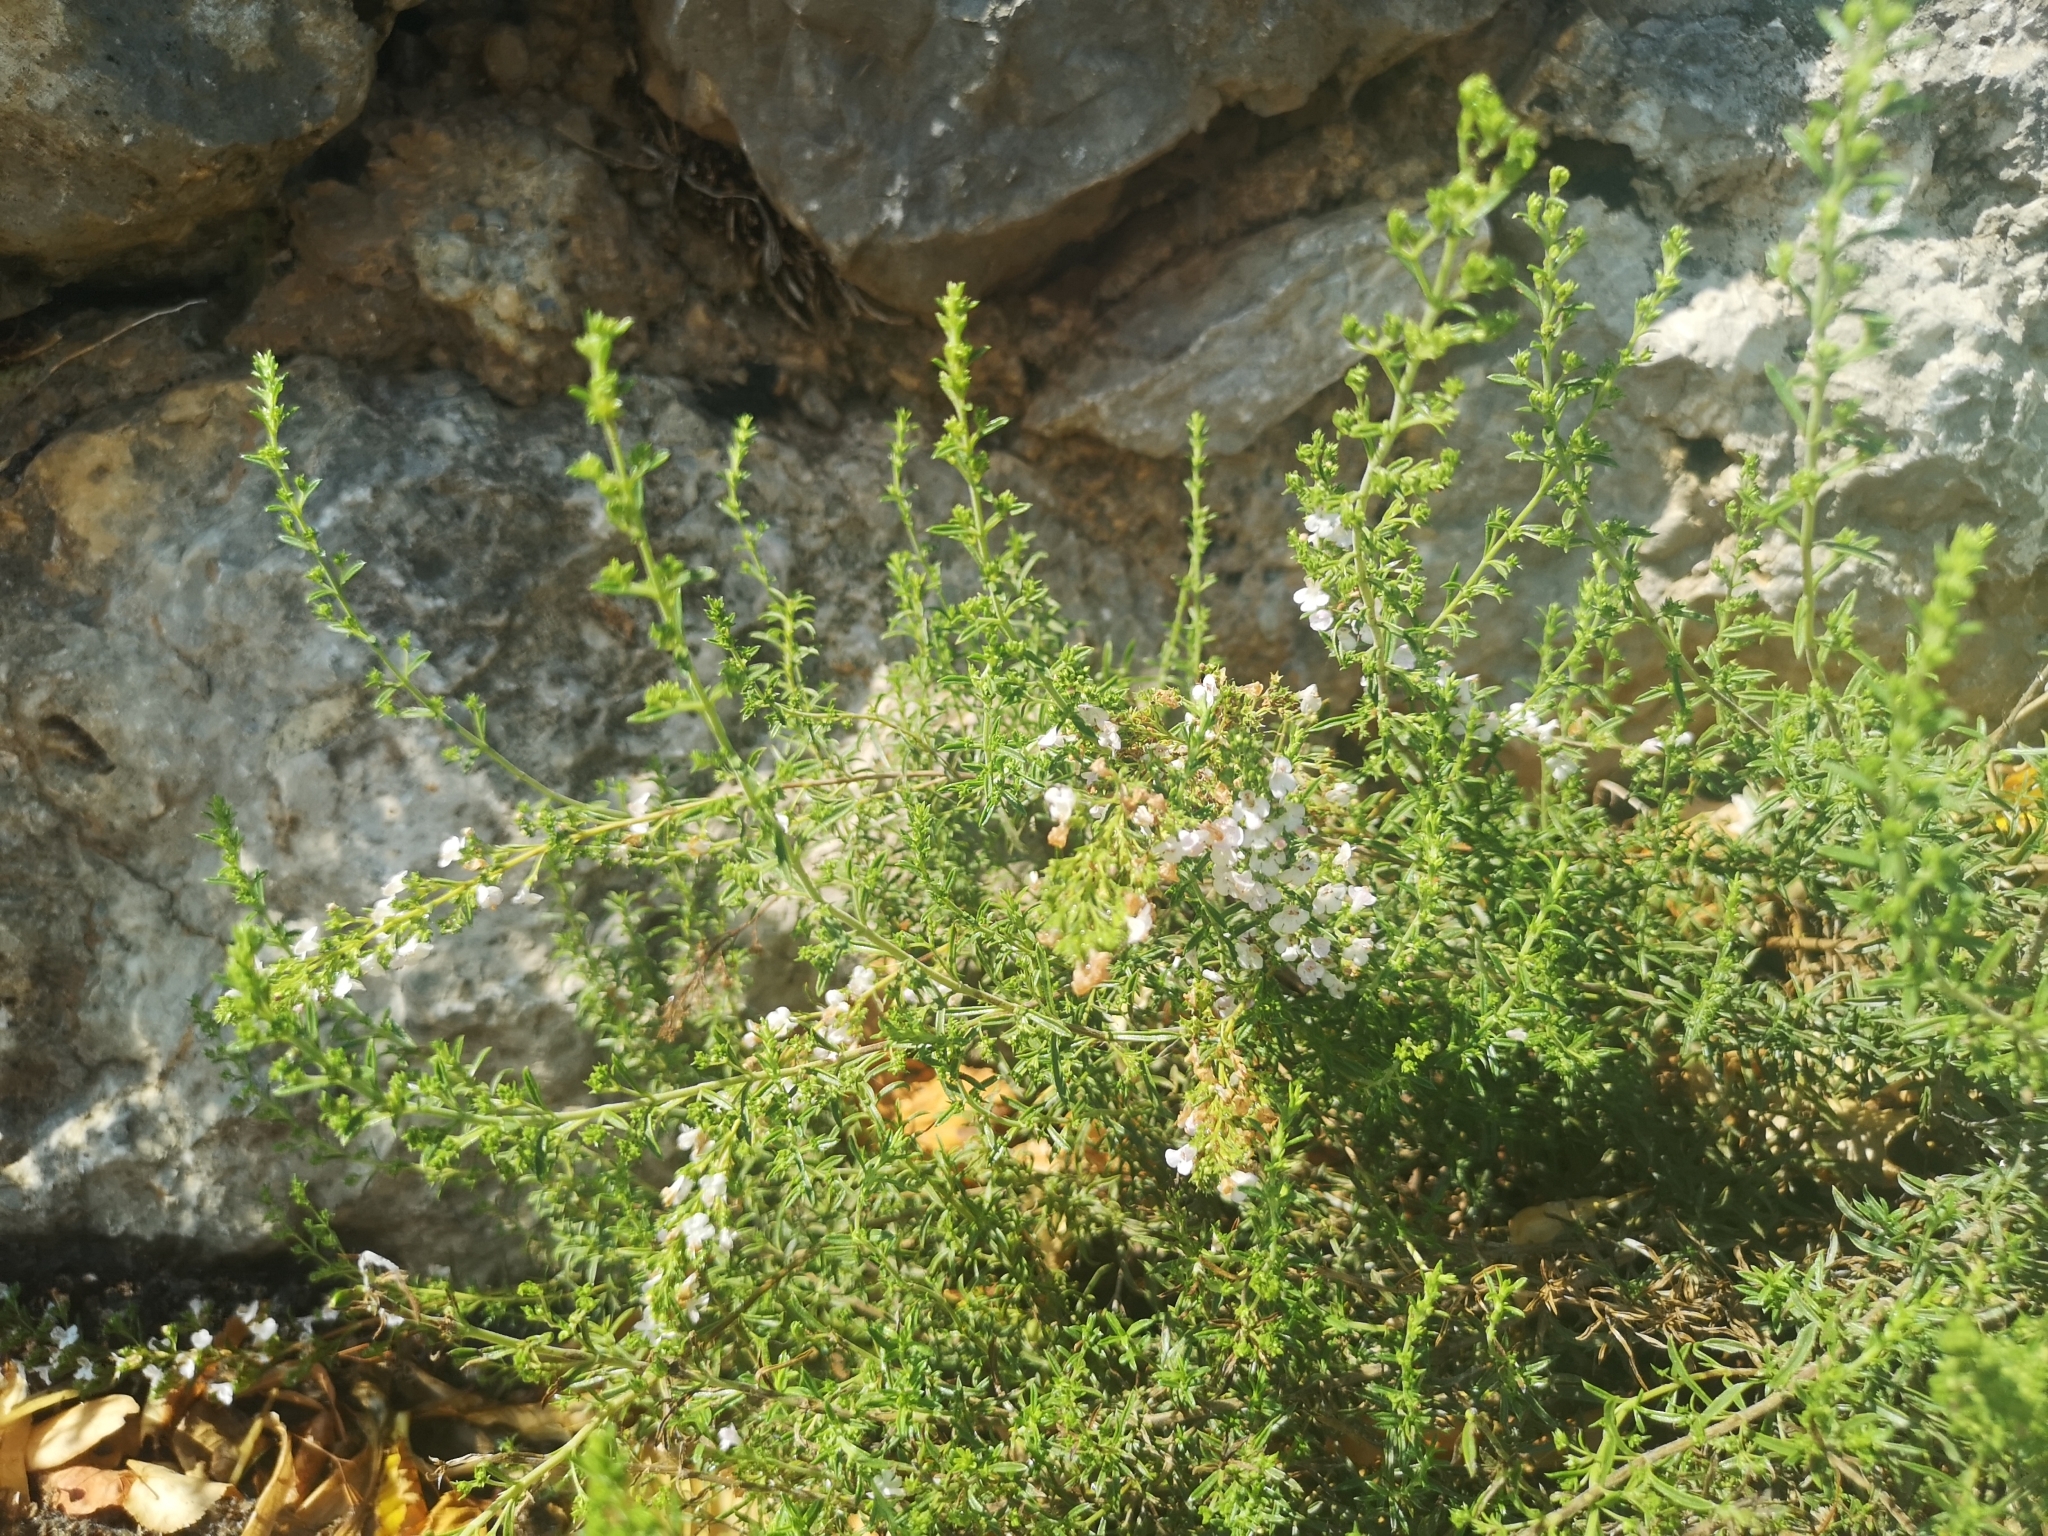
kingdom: Plantae
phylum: Tracheophyta
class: Magnoliopsida
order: Lamiales
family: Lamiaceae
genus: Satureja
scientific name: Satureja montana
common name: Winter savory
